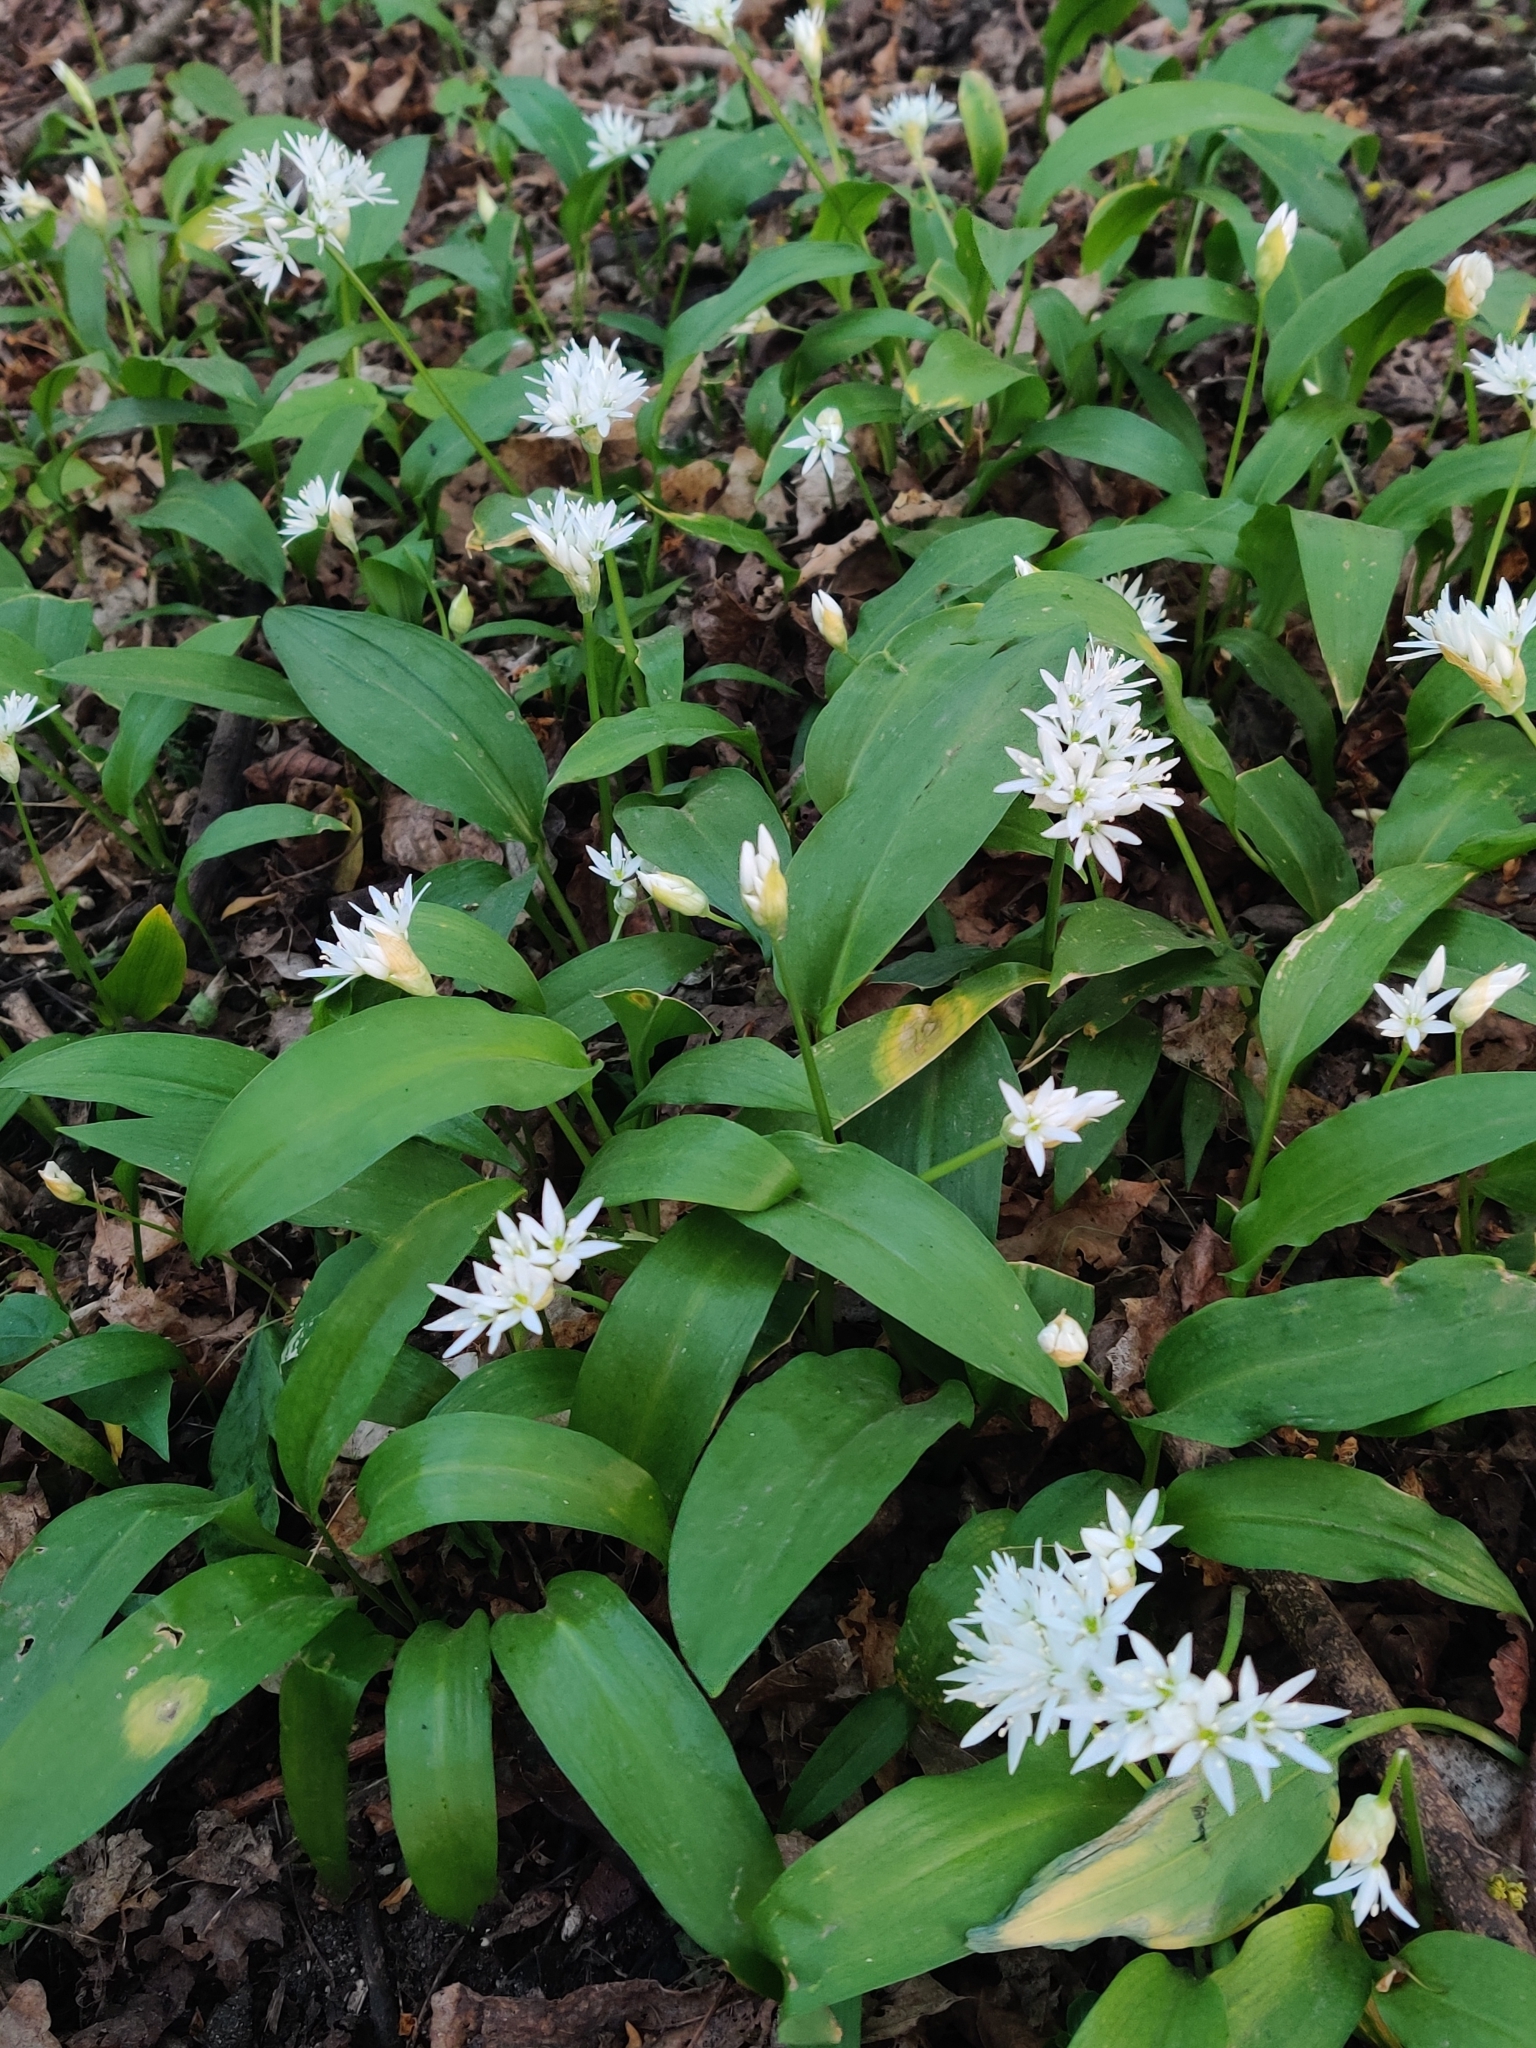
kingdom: Plantae
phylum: Tracheophyta
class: Liliopsida
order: Asparagales
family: Amaryllidaceae
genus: Allium
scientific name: Allium ursinum
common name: Ramsons
